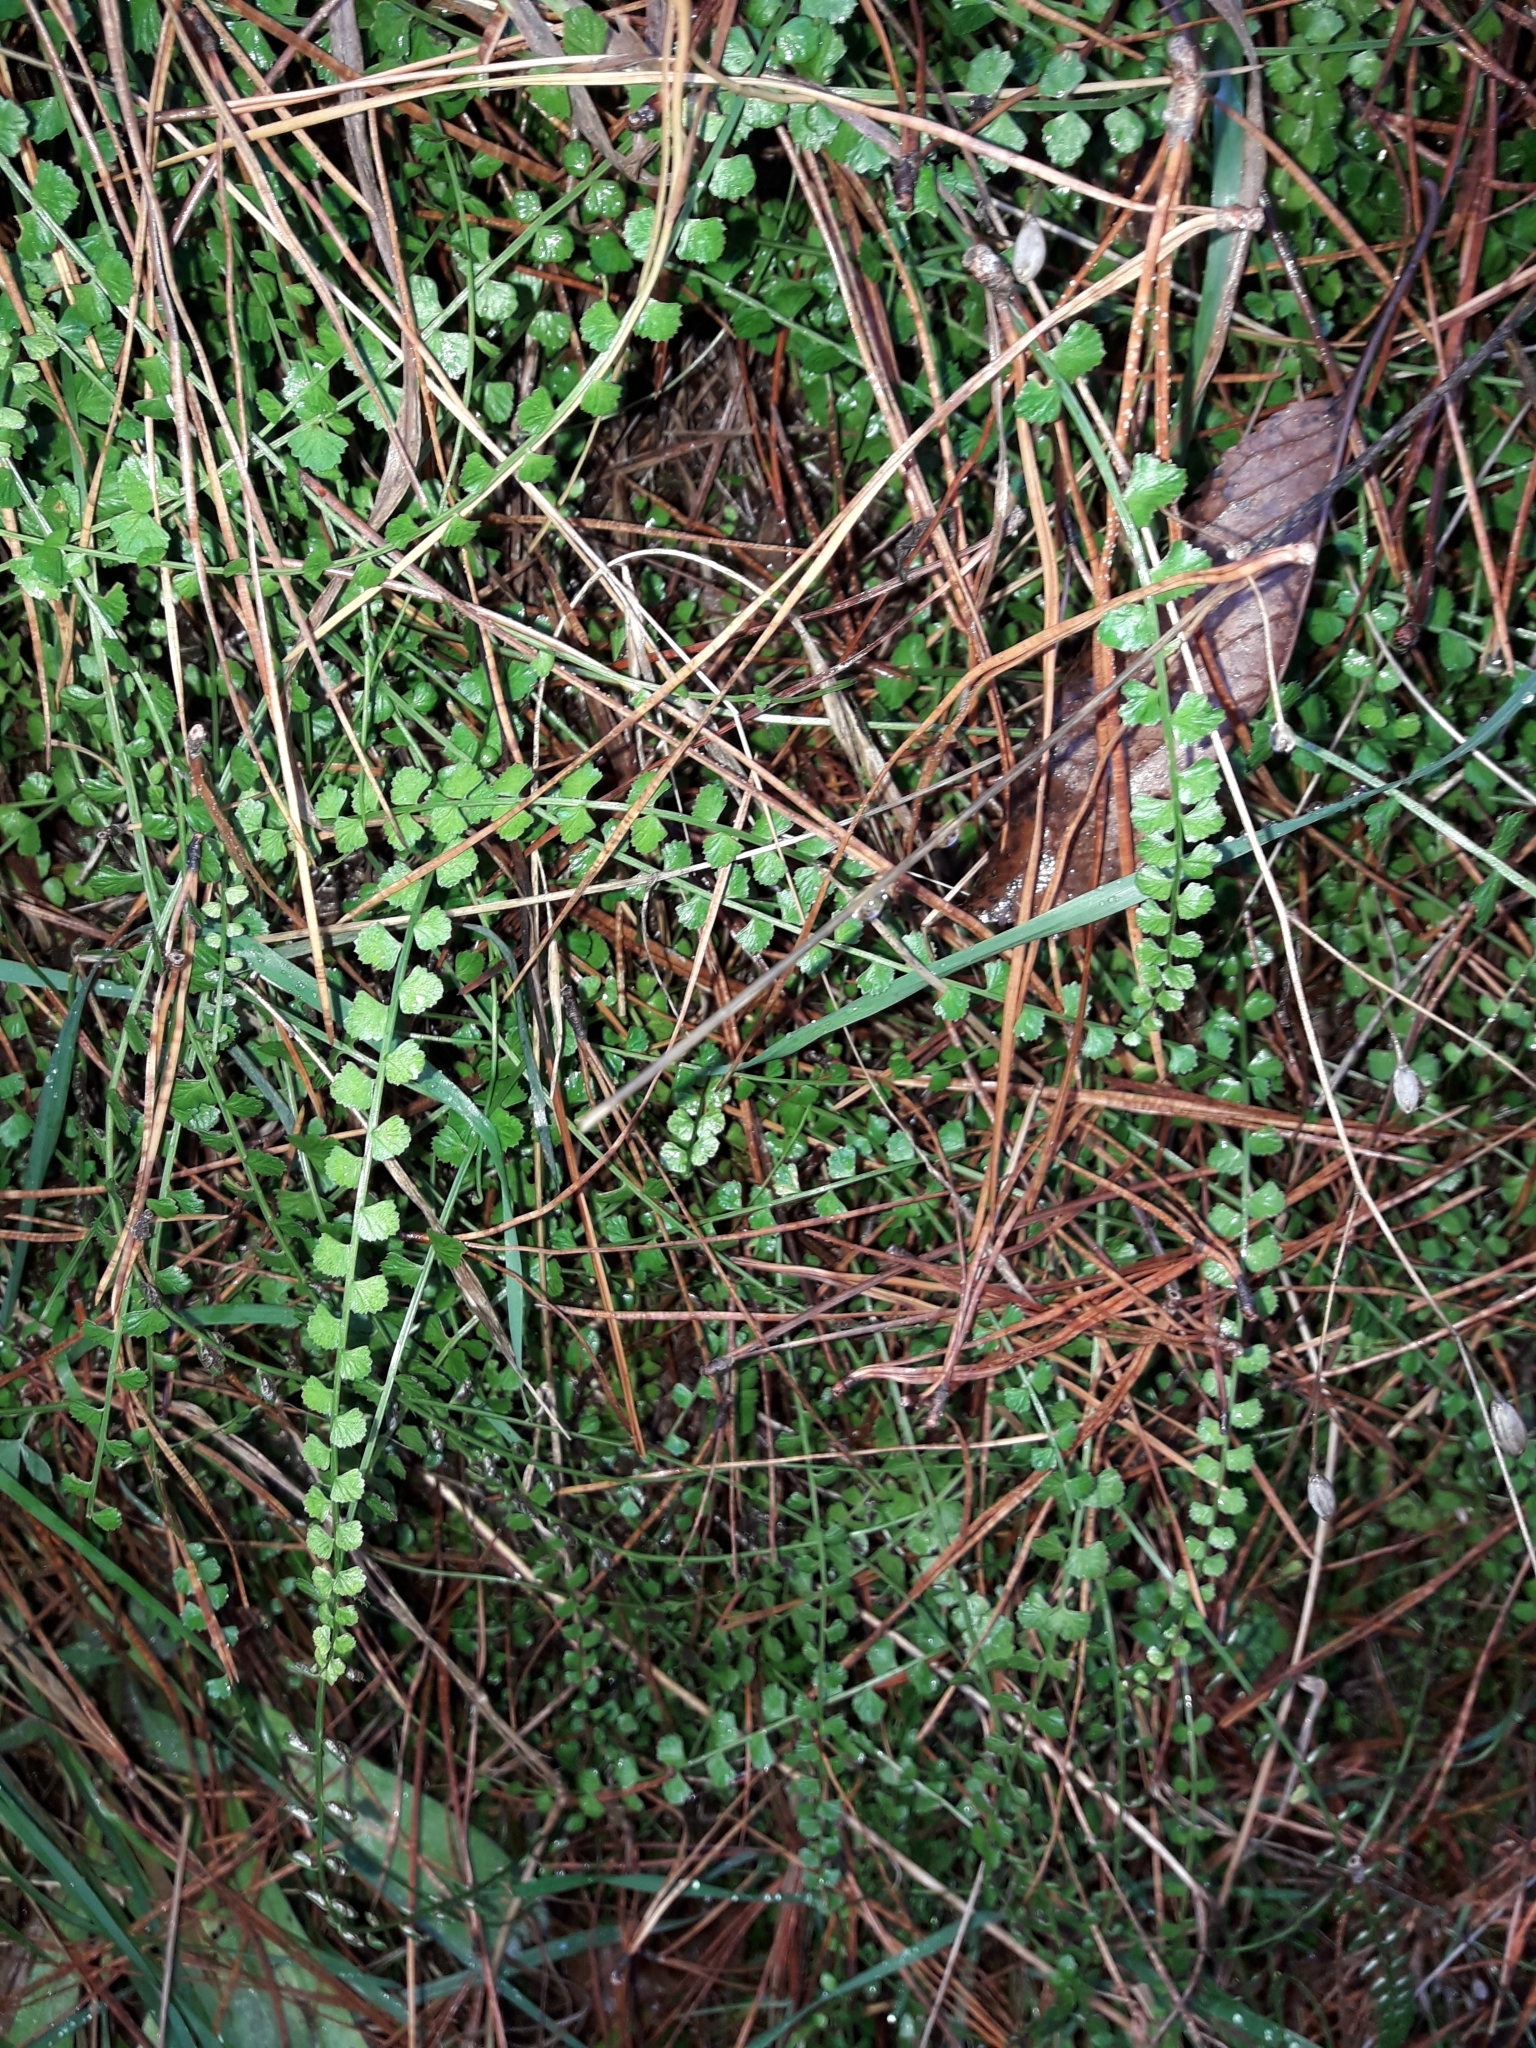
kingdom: Plantae
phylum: Tracheophyta
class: Polypodiopsida
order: Polypodiales
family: Aspleniaceae
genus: Asplenium
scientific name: Asplenium flabellifolium
